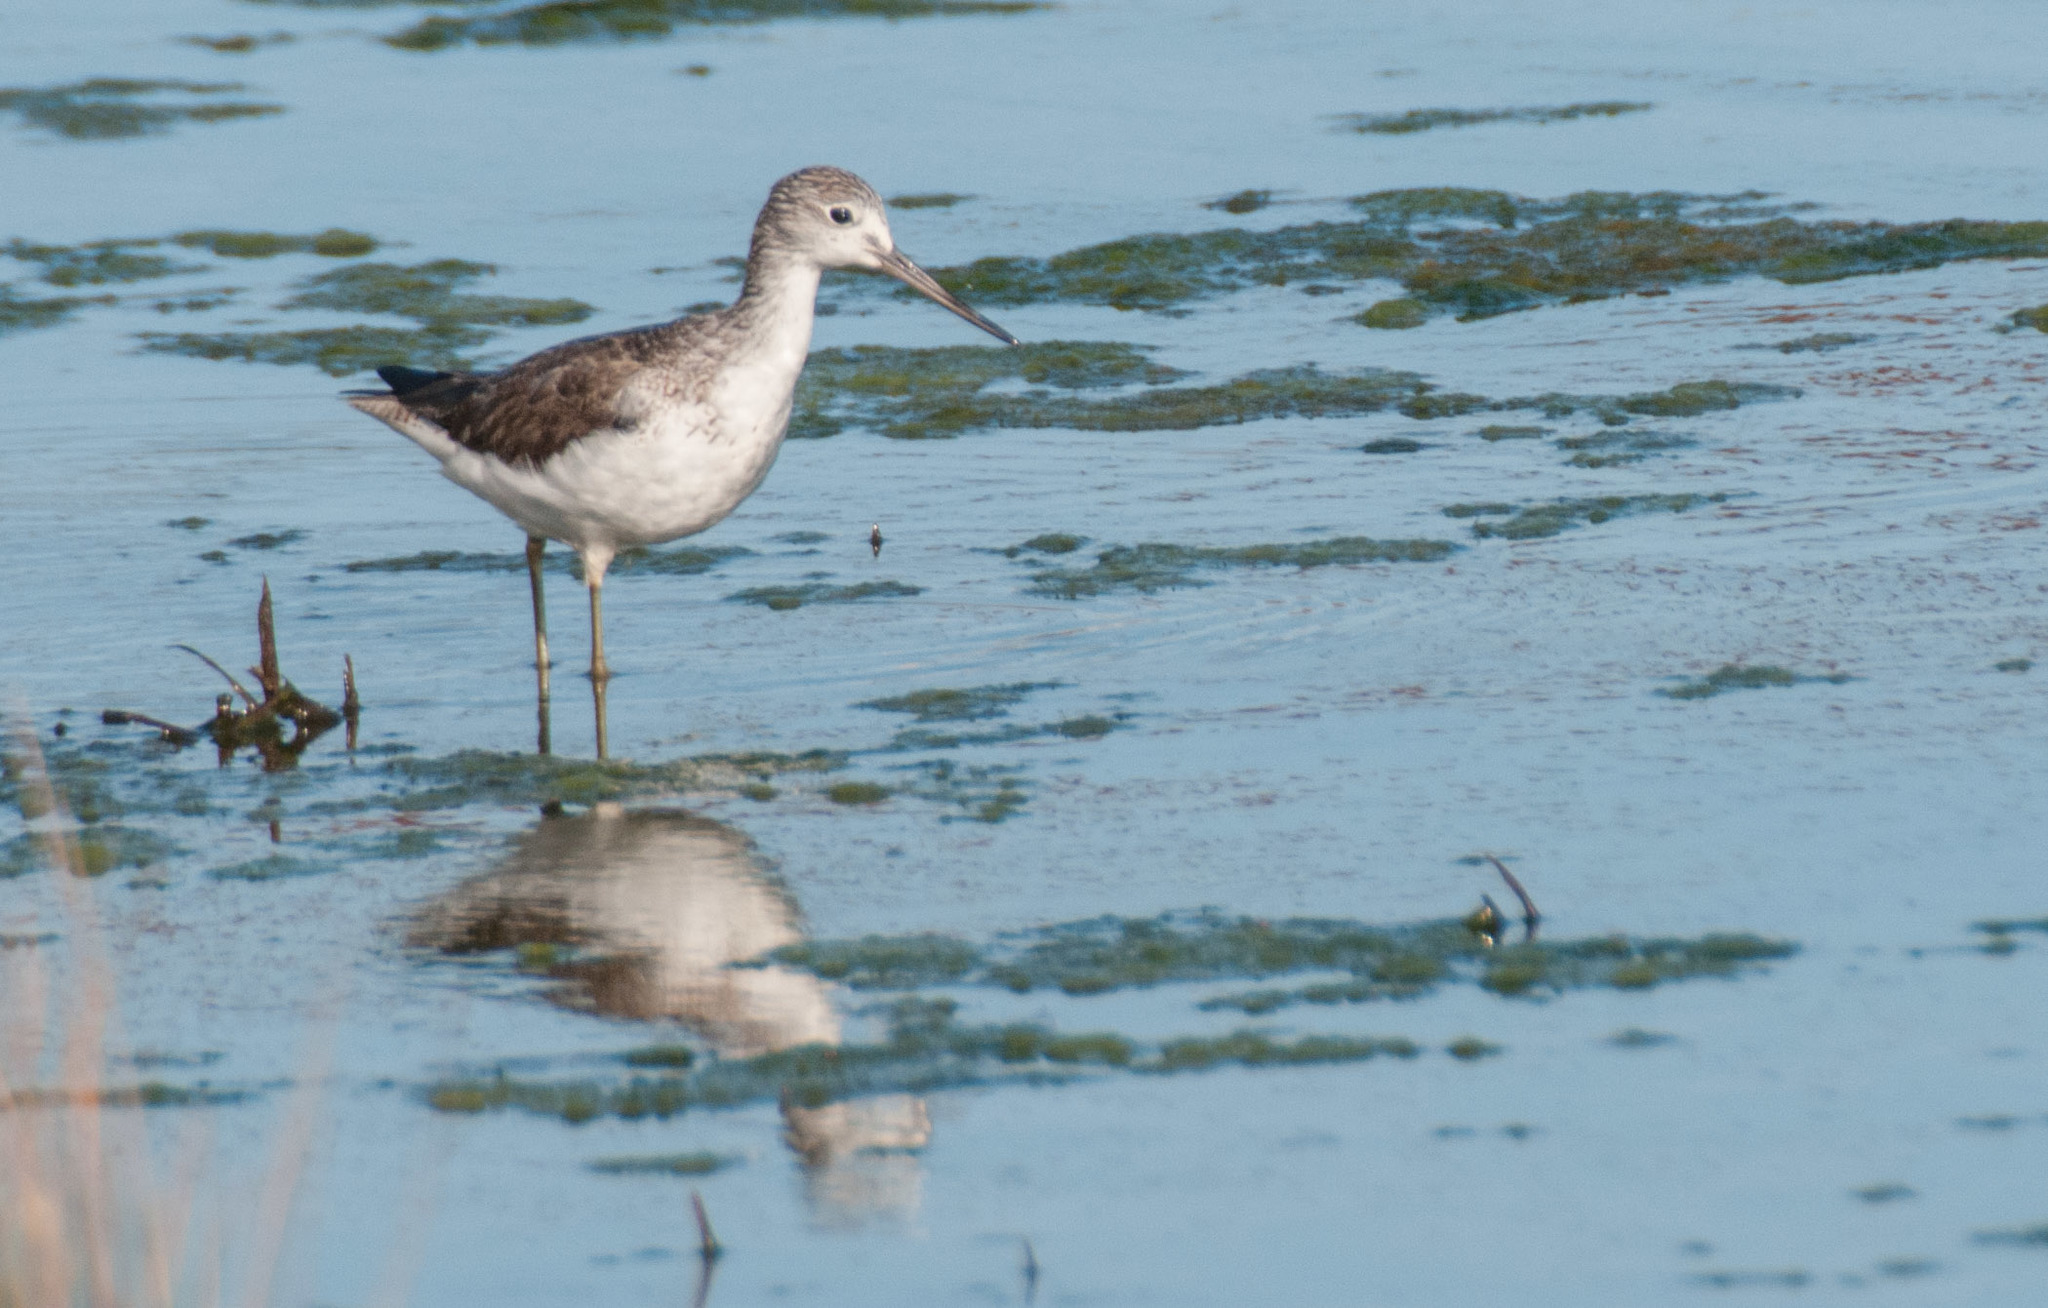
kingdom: Animalia
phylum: Chordata
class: Aves
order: Charadriiformes
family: Scolopacidae
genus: Tringa
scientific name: Tringa nebularia
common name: Common greenshank
